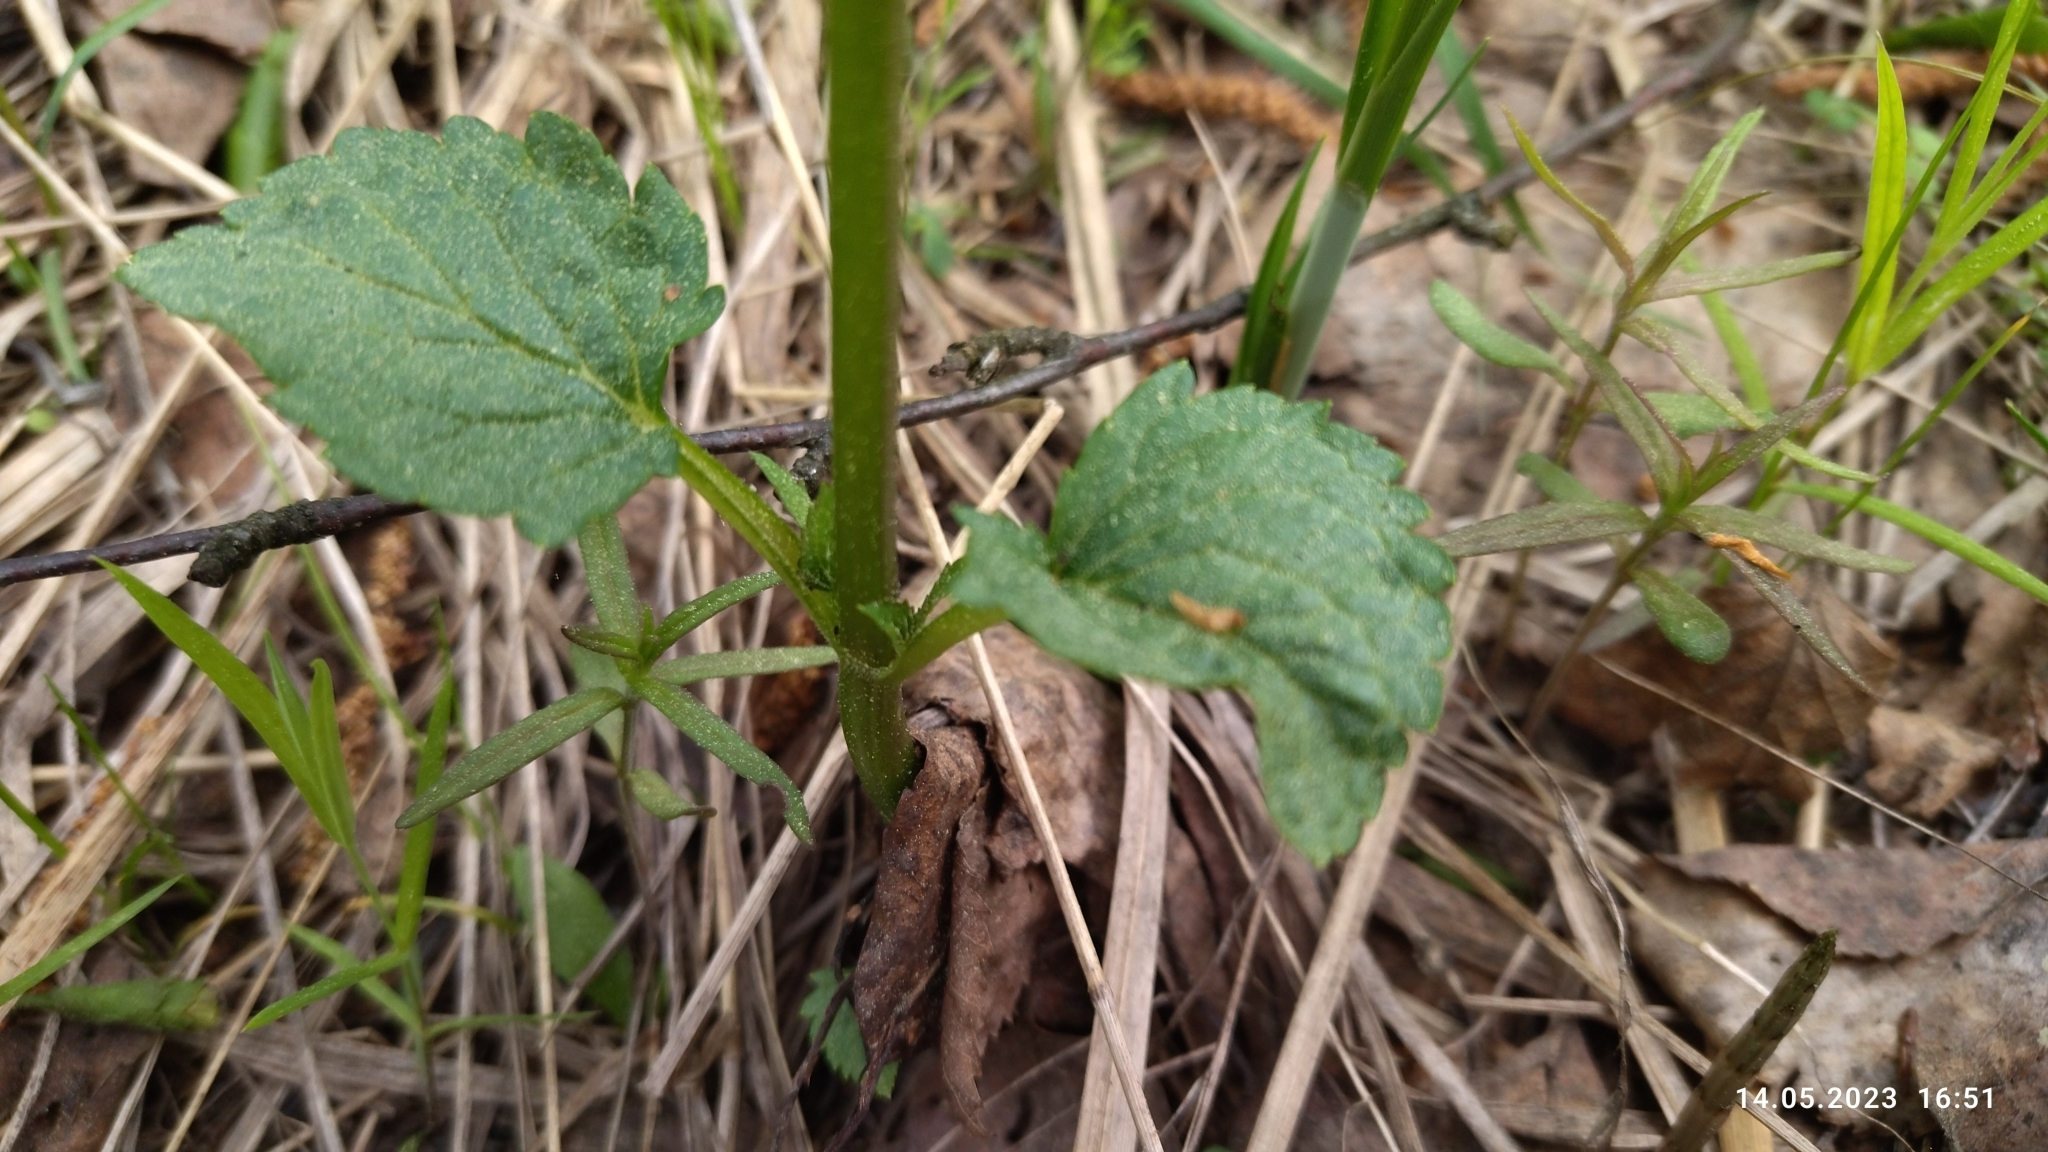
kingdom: Plantae
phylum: Tracheophyta
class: Magnoliopsida
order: Lamiales
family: Scrophulariaceae
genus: Scrophularia
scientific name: Scrophularia nodosa
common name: Common figwort
